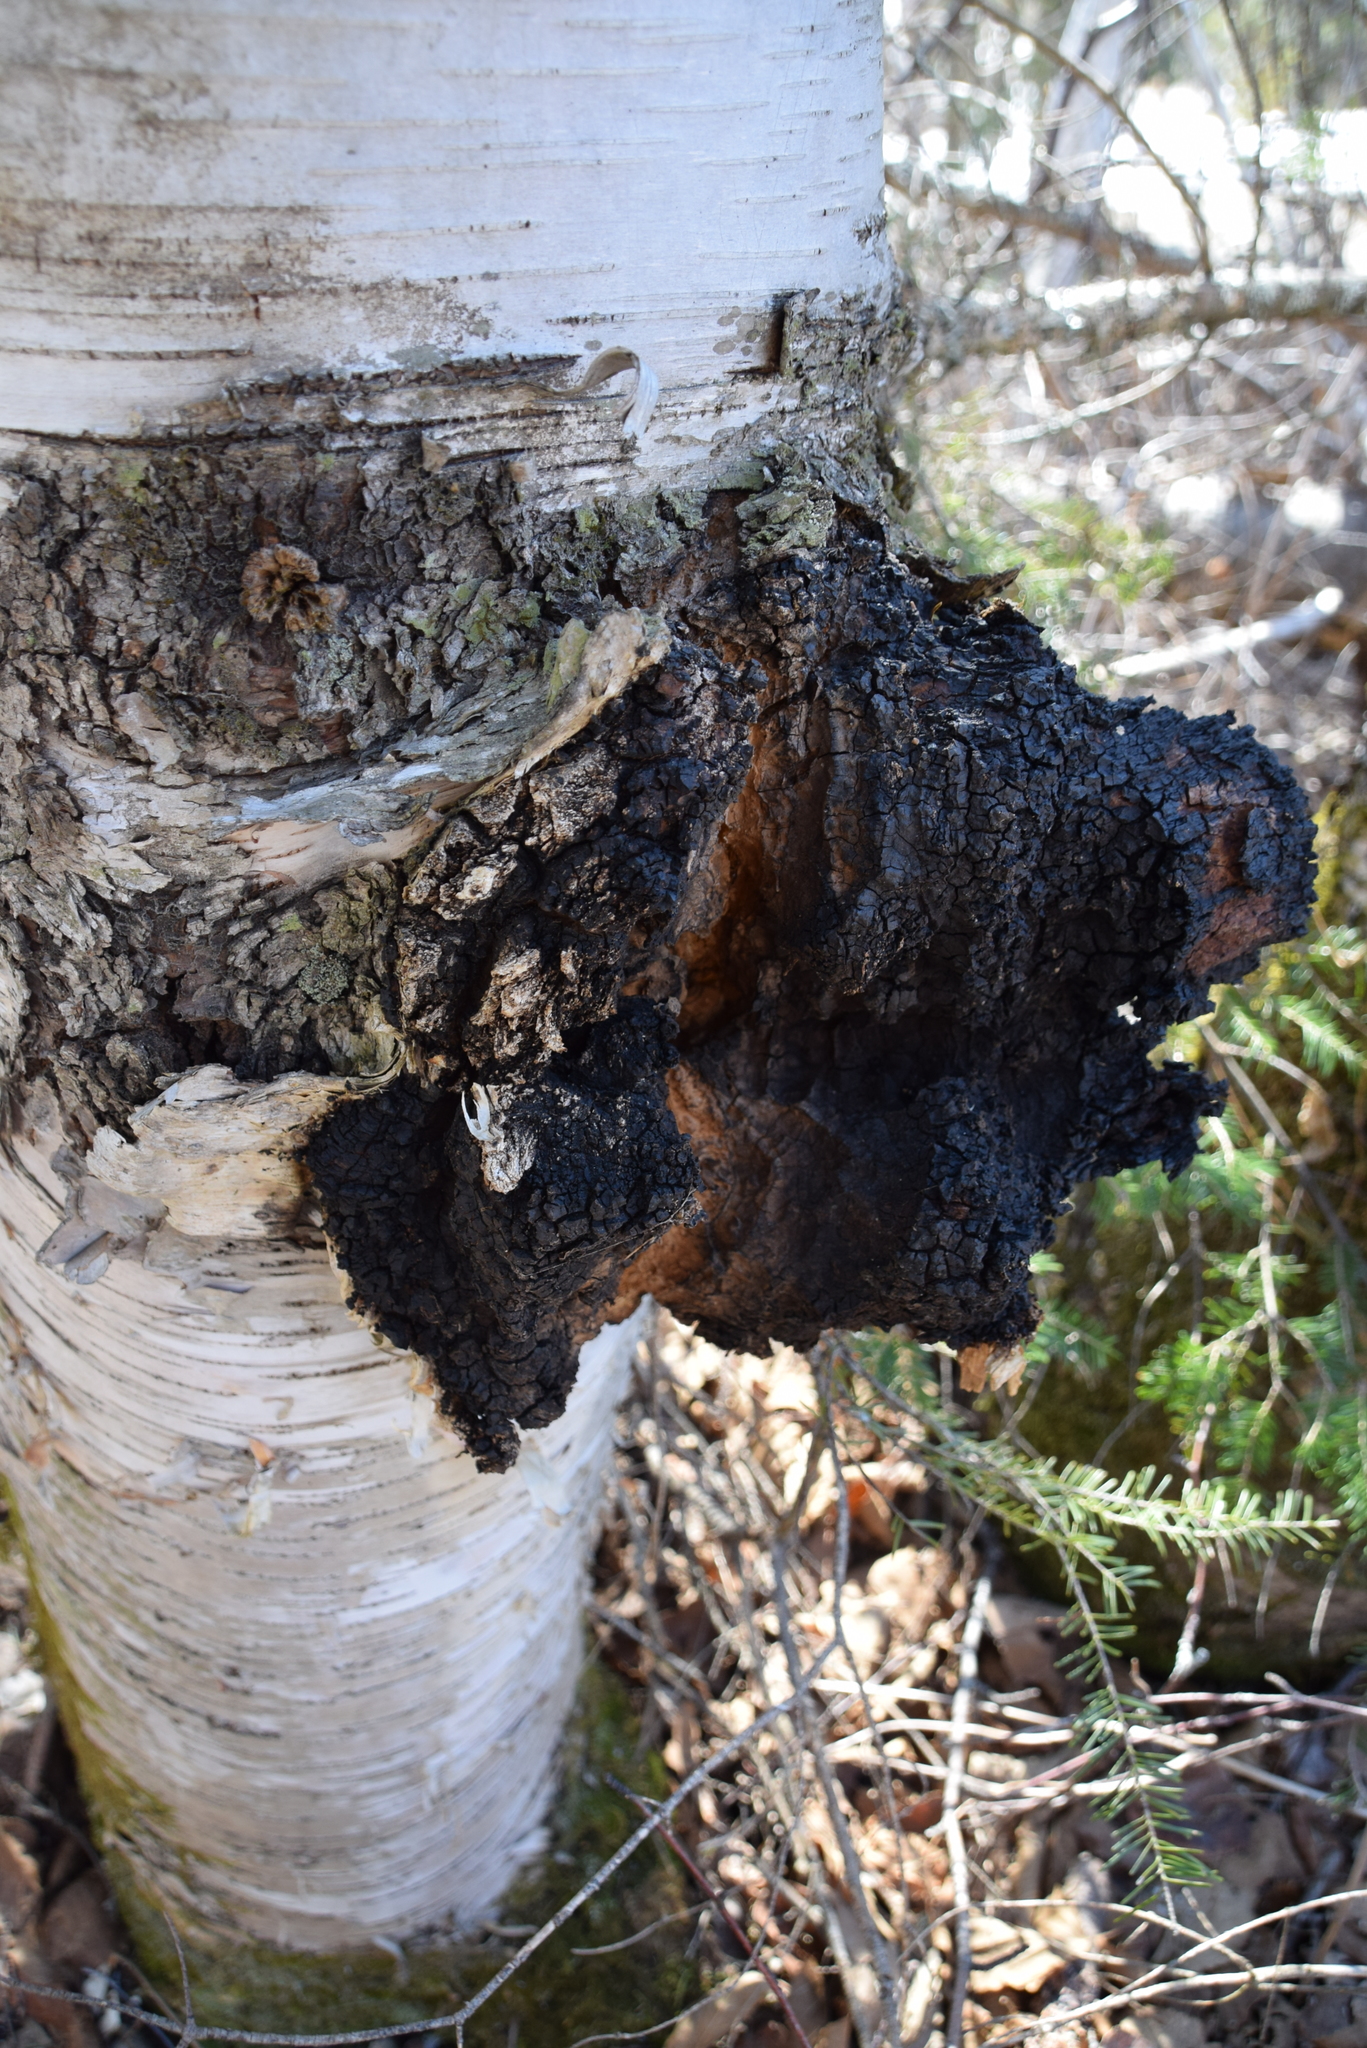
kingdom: Fungi
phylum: Basidiomycota
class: Agaricomycetes
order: Hymenochaetales
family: Hymenochaetaceae
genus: Inonotus
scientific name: Inonotus obliquus
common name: Chaga
